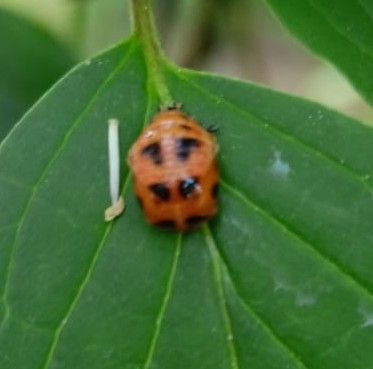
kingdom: Animalia
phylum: Arthropoda
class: Insecta
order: Coleoptera
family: Coccinellidae
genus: Harmonia
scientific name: Harmonia axyridis
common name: Harlequin ladybird
